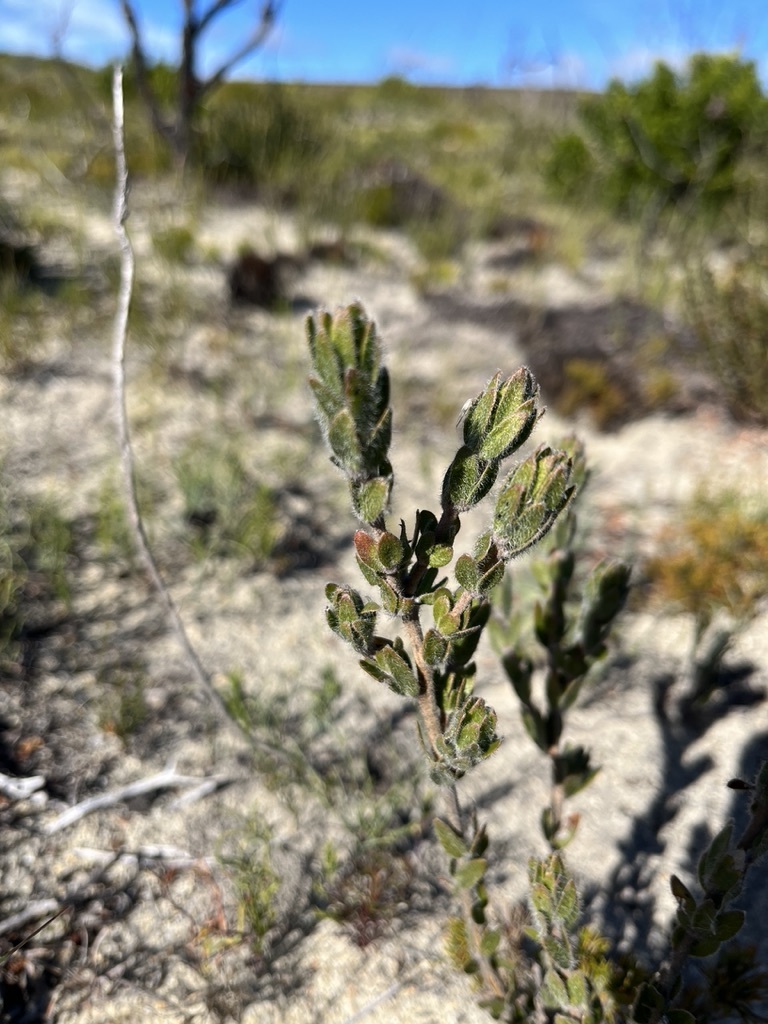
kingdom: Plantae
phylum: Tracheophyta
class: Magnoliopsida
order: Fabales
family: Fabaceae
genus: Xiphotheca
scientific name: Xiphotheca guthriei
